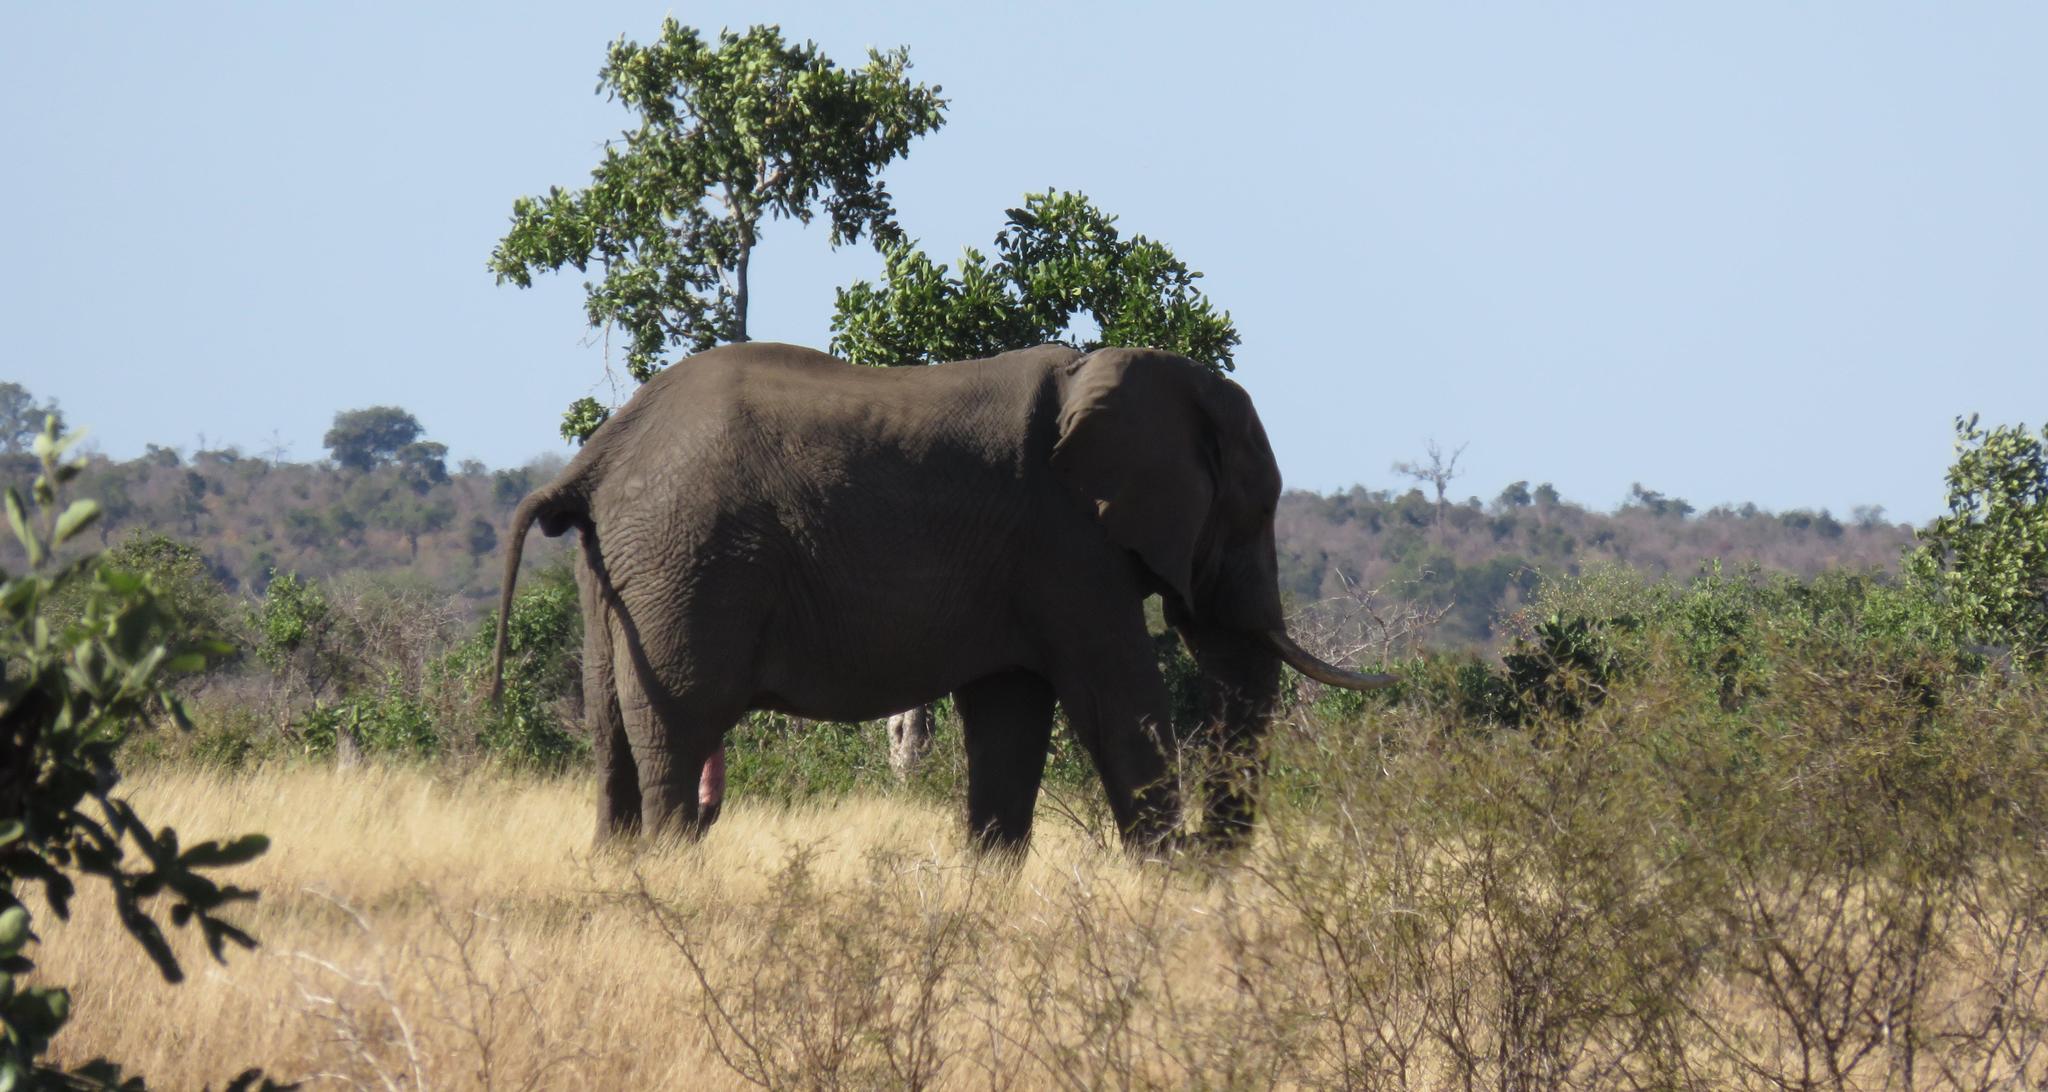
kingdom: Animalia
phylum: Chordata
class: Mammalia
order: Proboscidea
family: Elephantidae
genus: Loxodonta
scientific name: Loxodonta africana
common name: African elephant
